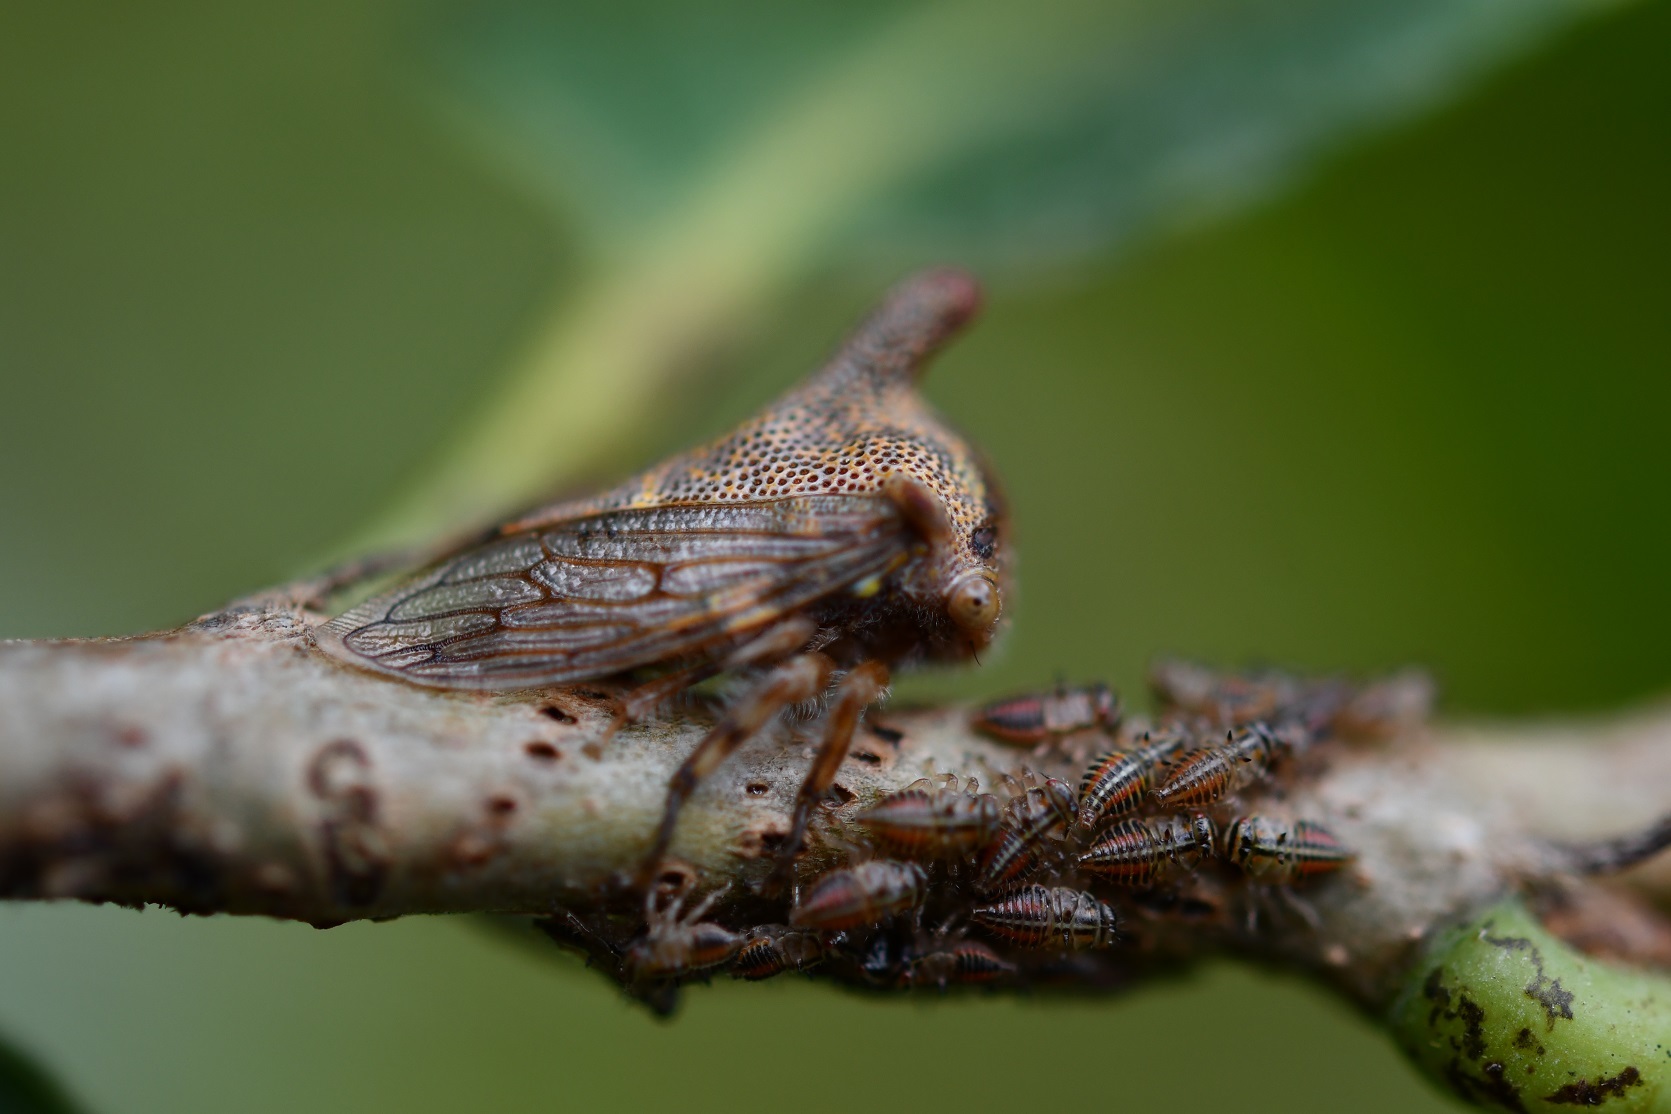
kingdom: Animalia
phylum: Arthropoda
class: Insecta
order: Hemiptera
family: Membracidae
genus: Platycotis
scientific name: Platycotis tuberculata
